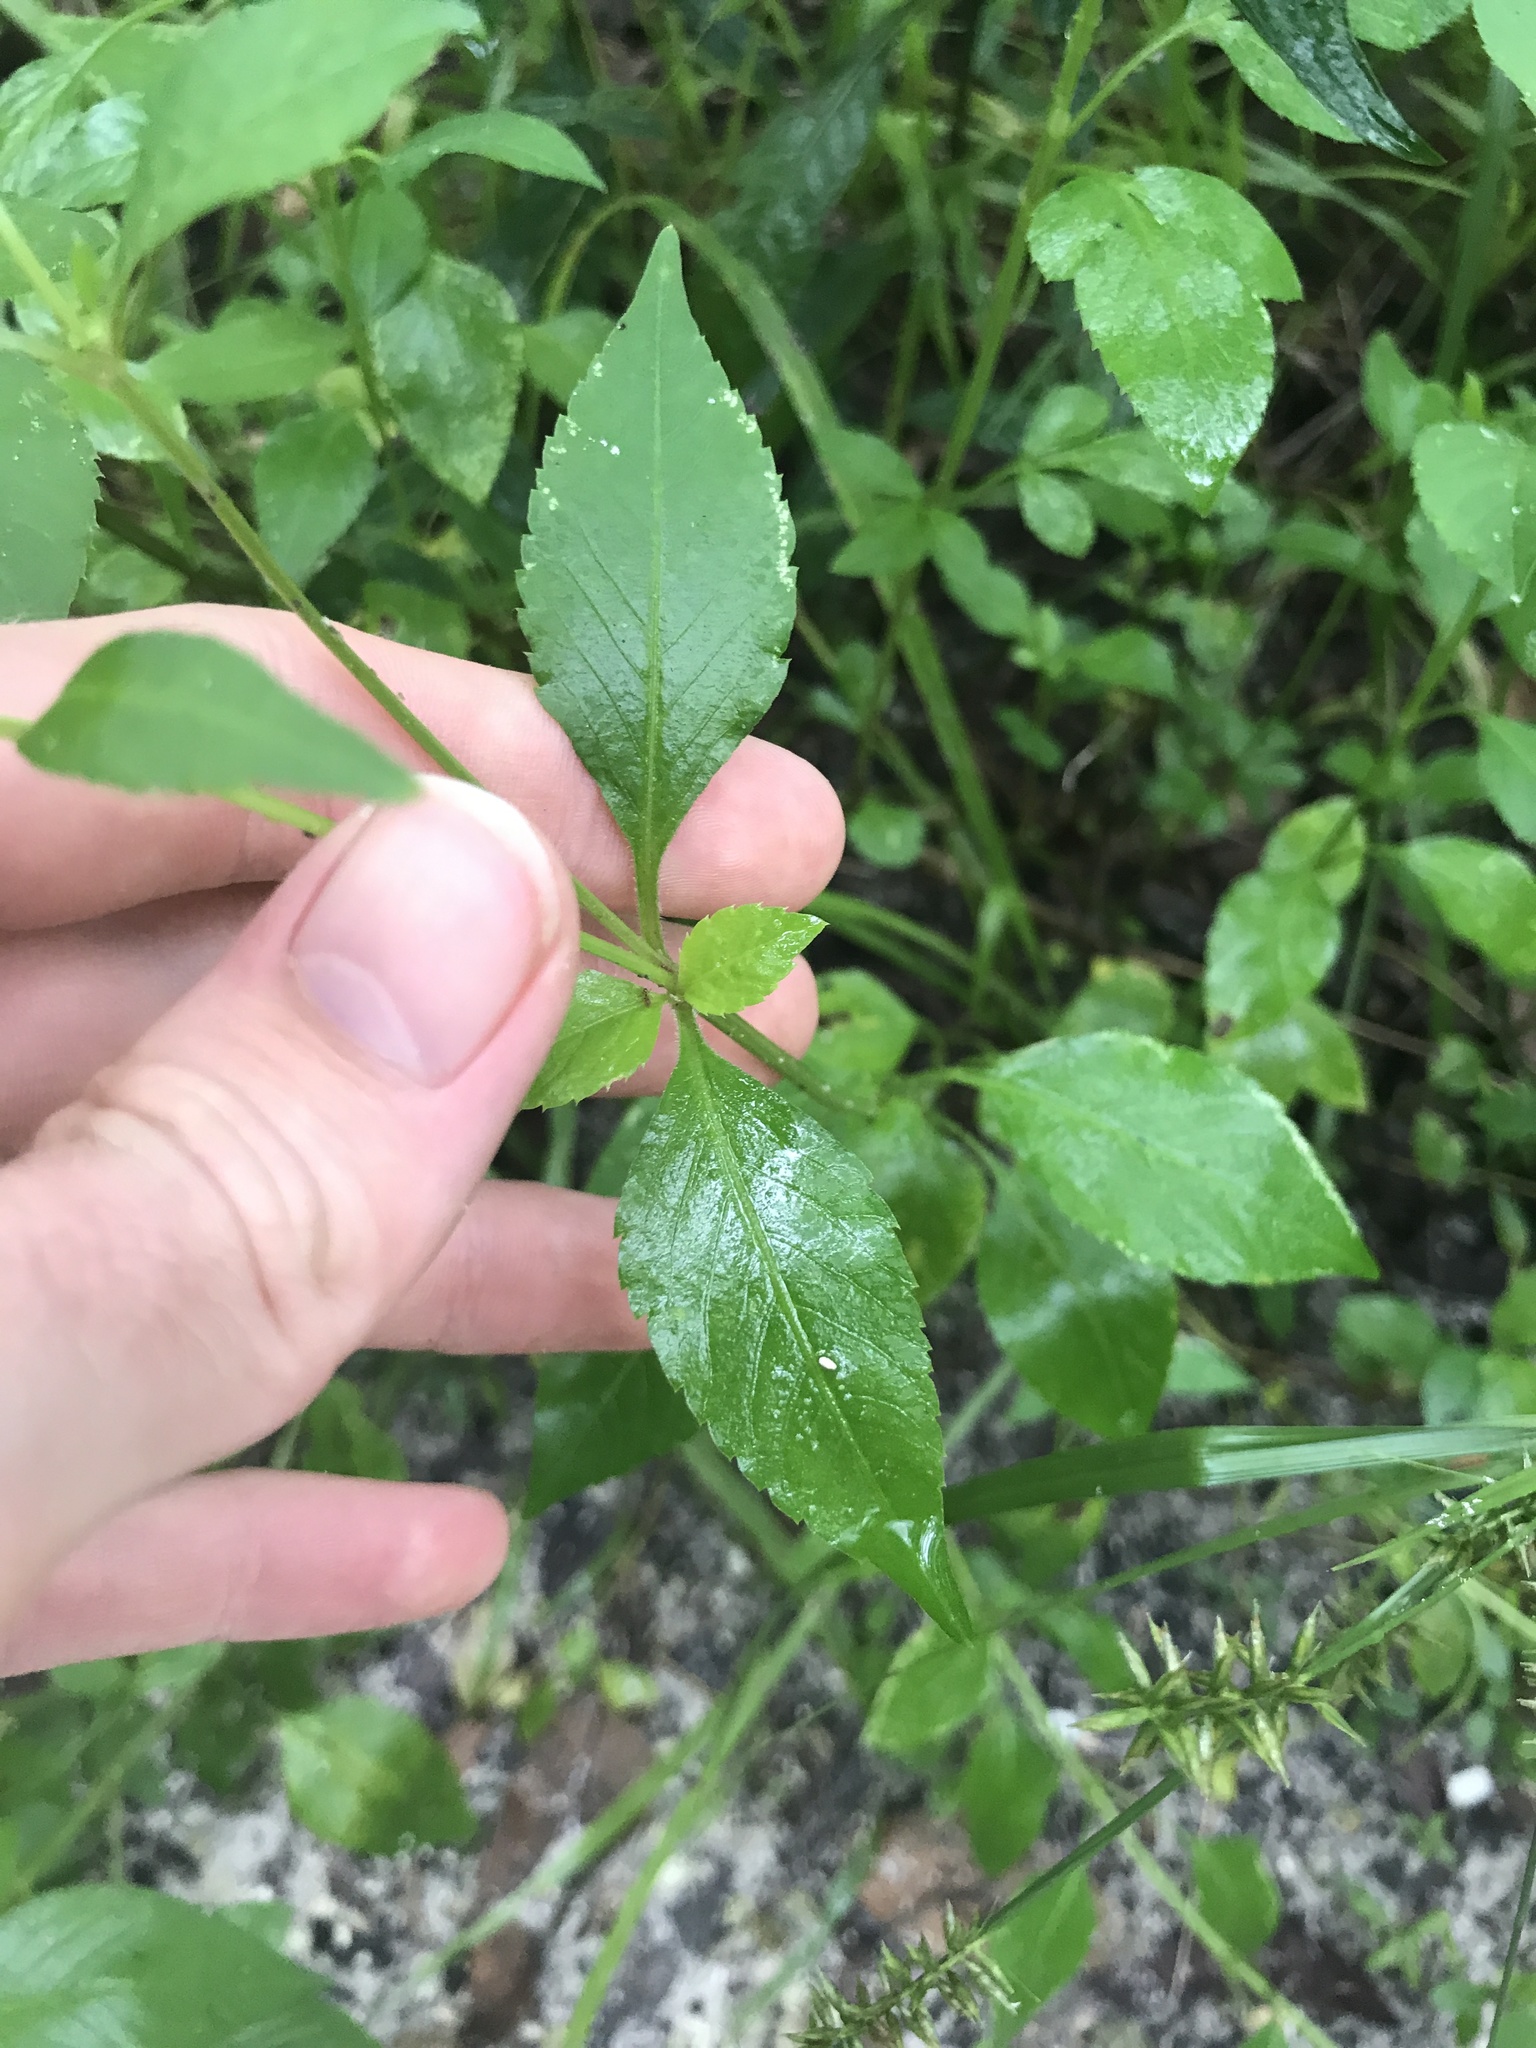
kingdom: Plantae
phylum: Tracheophyta
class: Magnoliopsida
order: Asterales
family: Asteraceae
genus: Bidens
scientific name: Bidens alba
